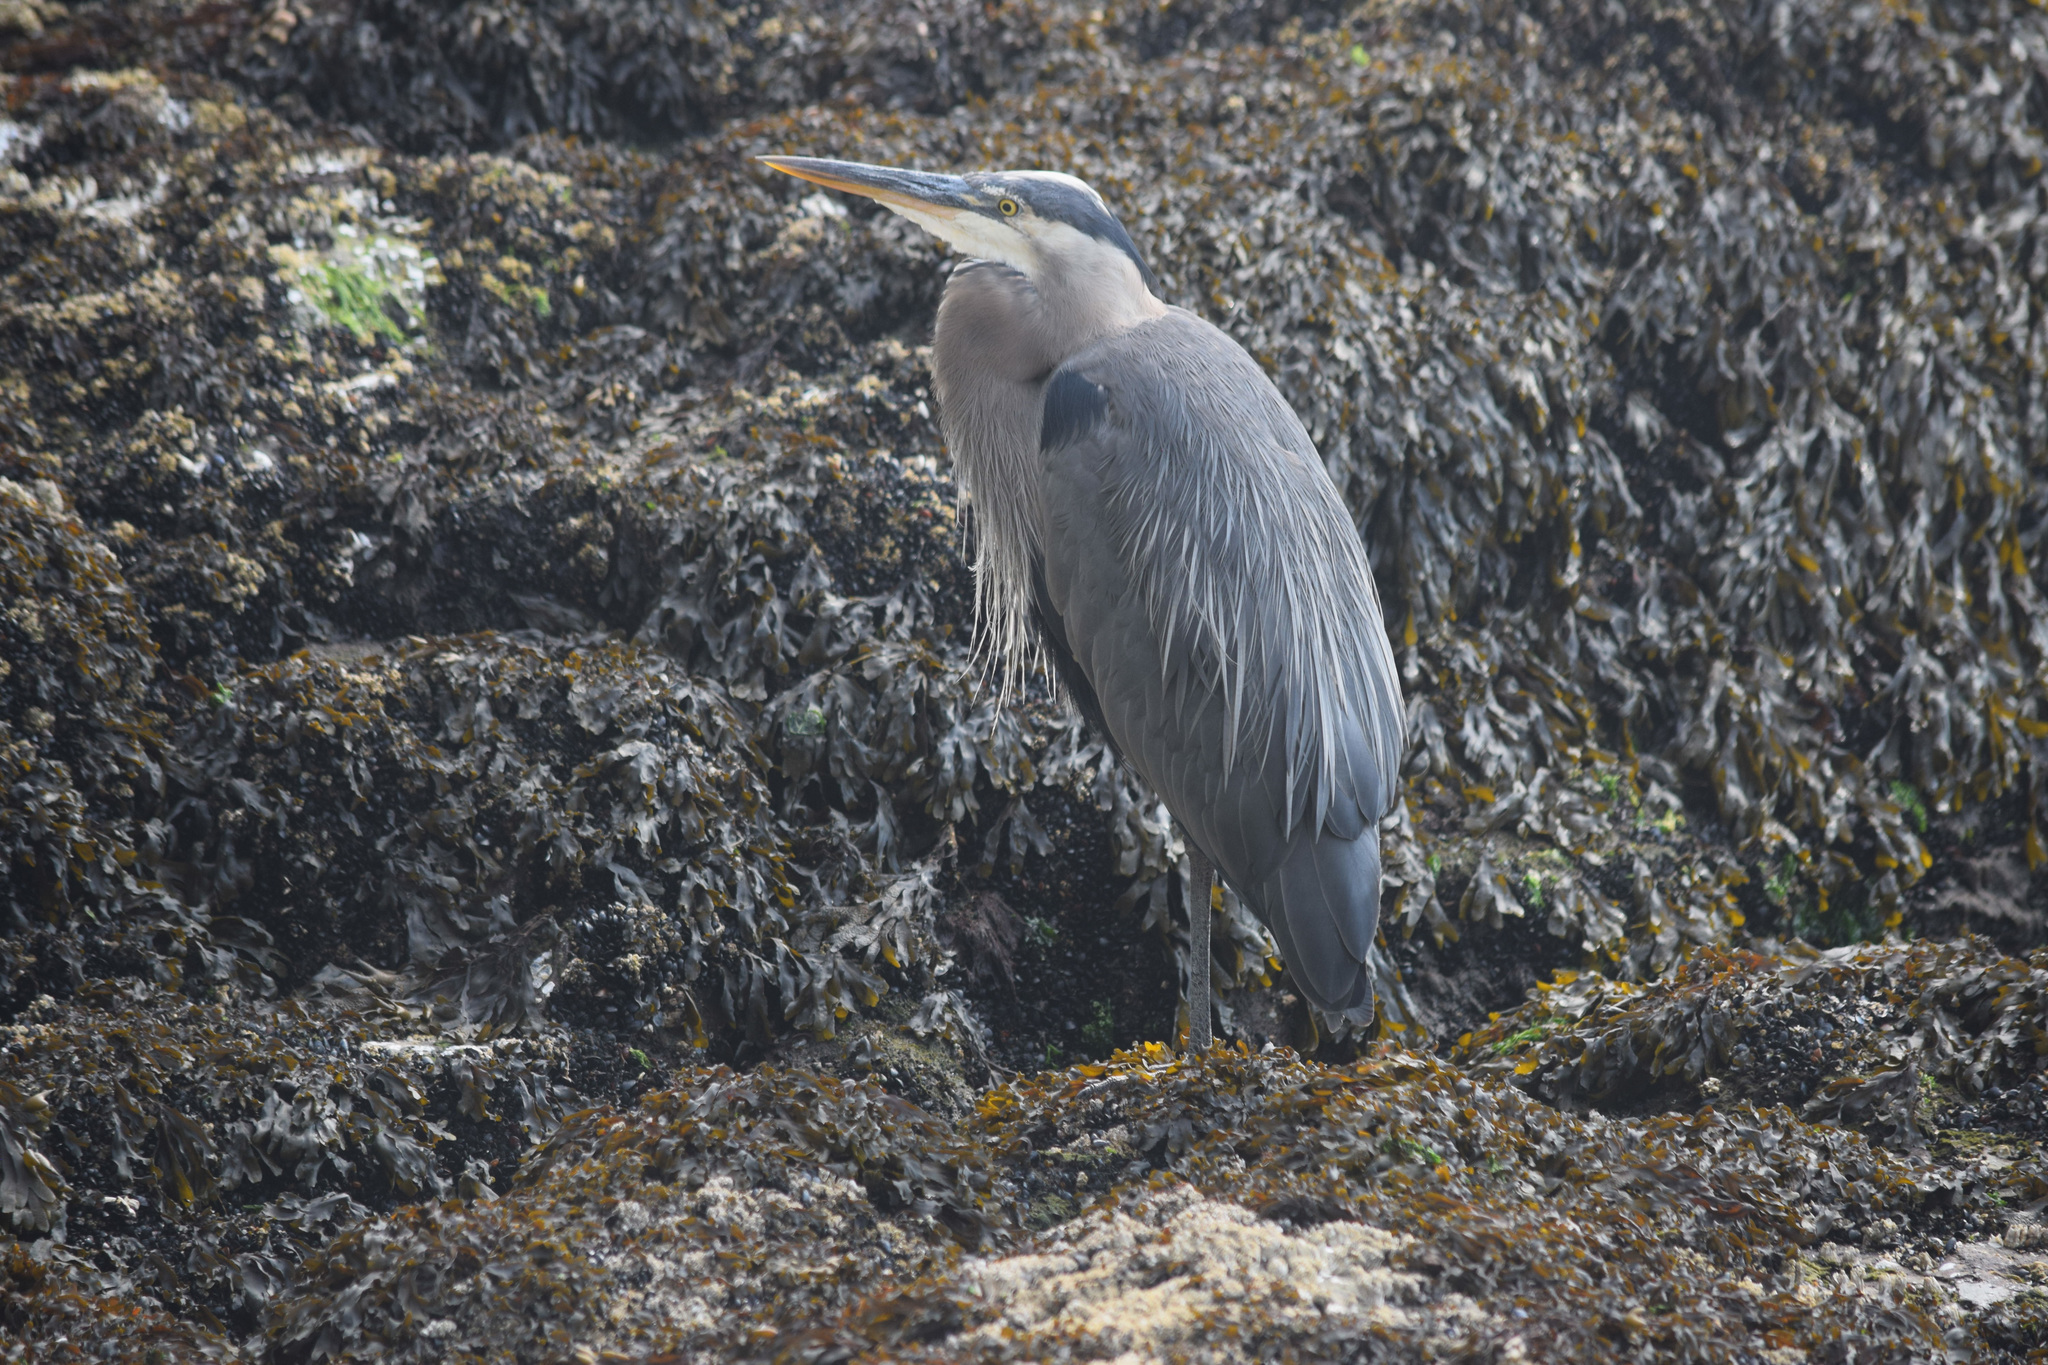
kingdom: Animalia
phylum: Chordata
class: Aves
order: Pelecaniformes
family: Ardeidae
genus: Ardea
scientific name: Ardea herodias
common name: Great blue heron
